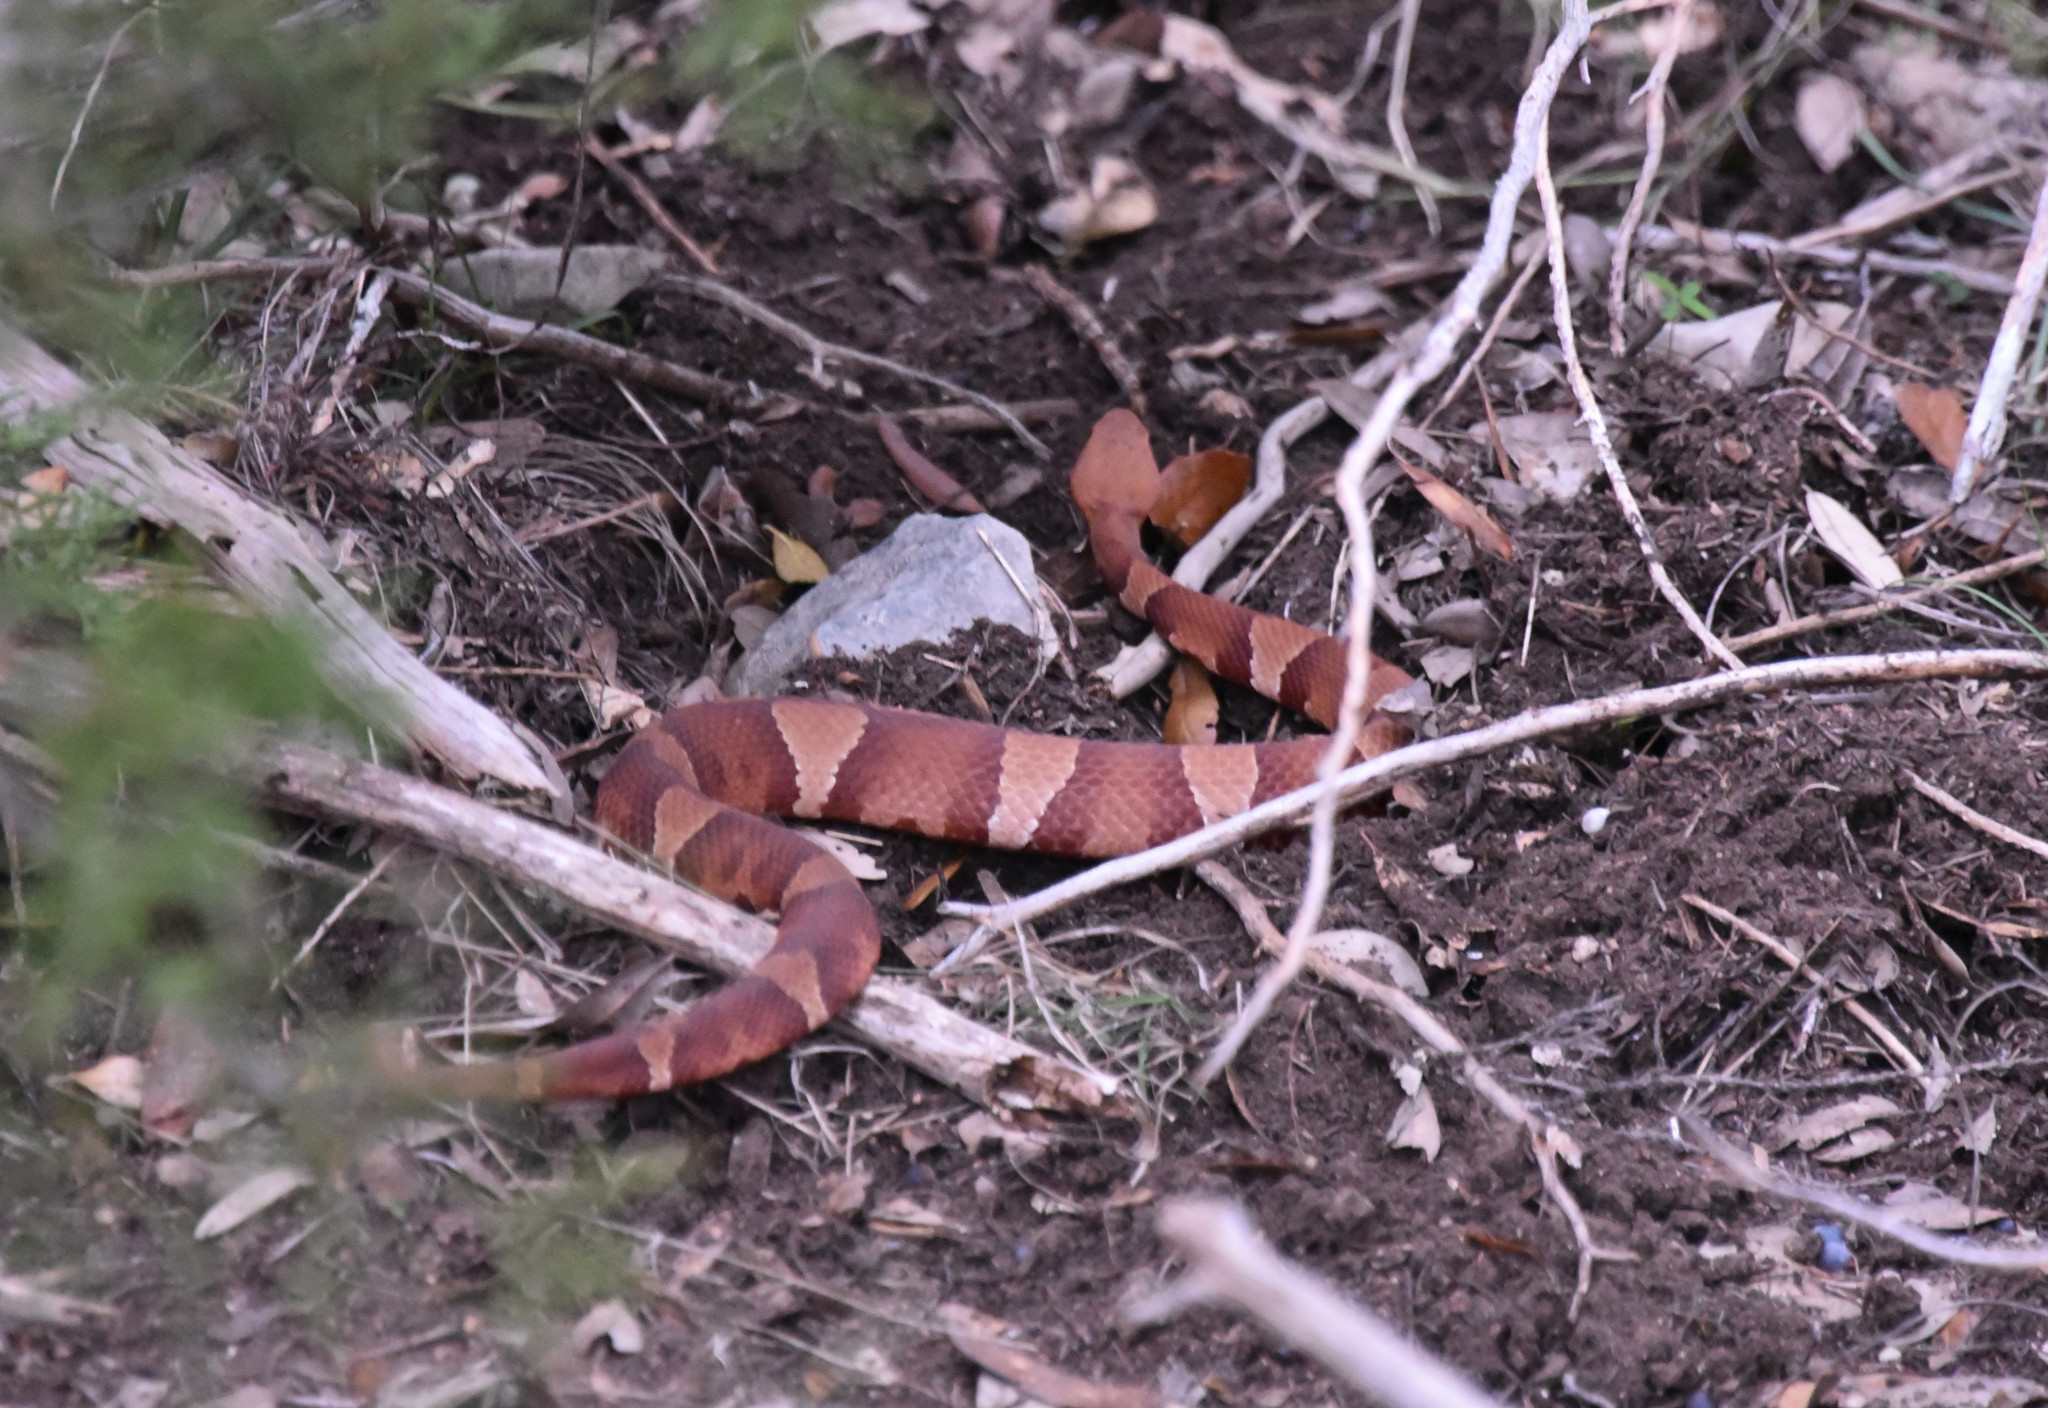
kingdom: Animalia
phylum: Chordata
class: Squamata
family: Viperidae
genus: Agkistrodon
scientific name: Agkistrodon laticinctus
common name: Broad-banded copperhead
